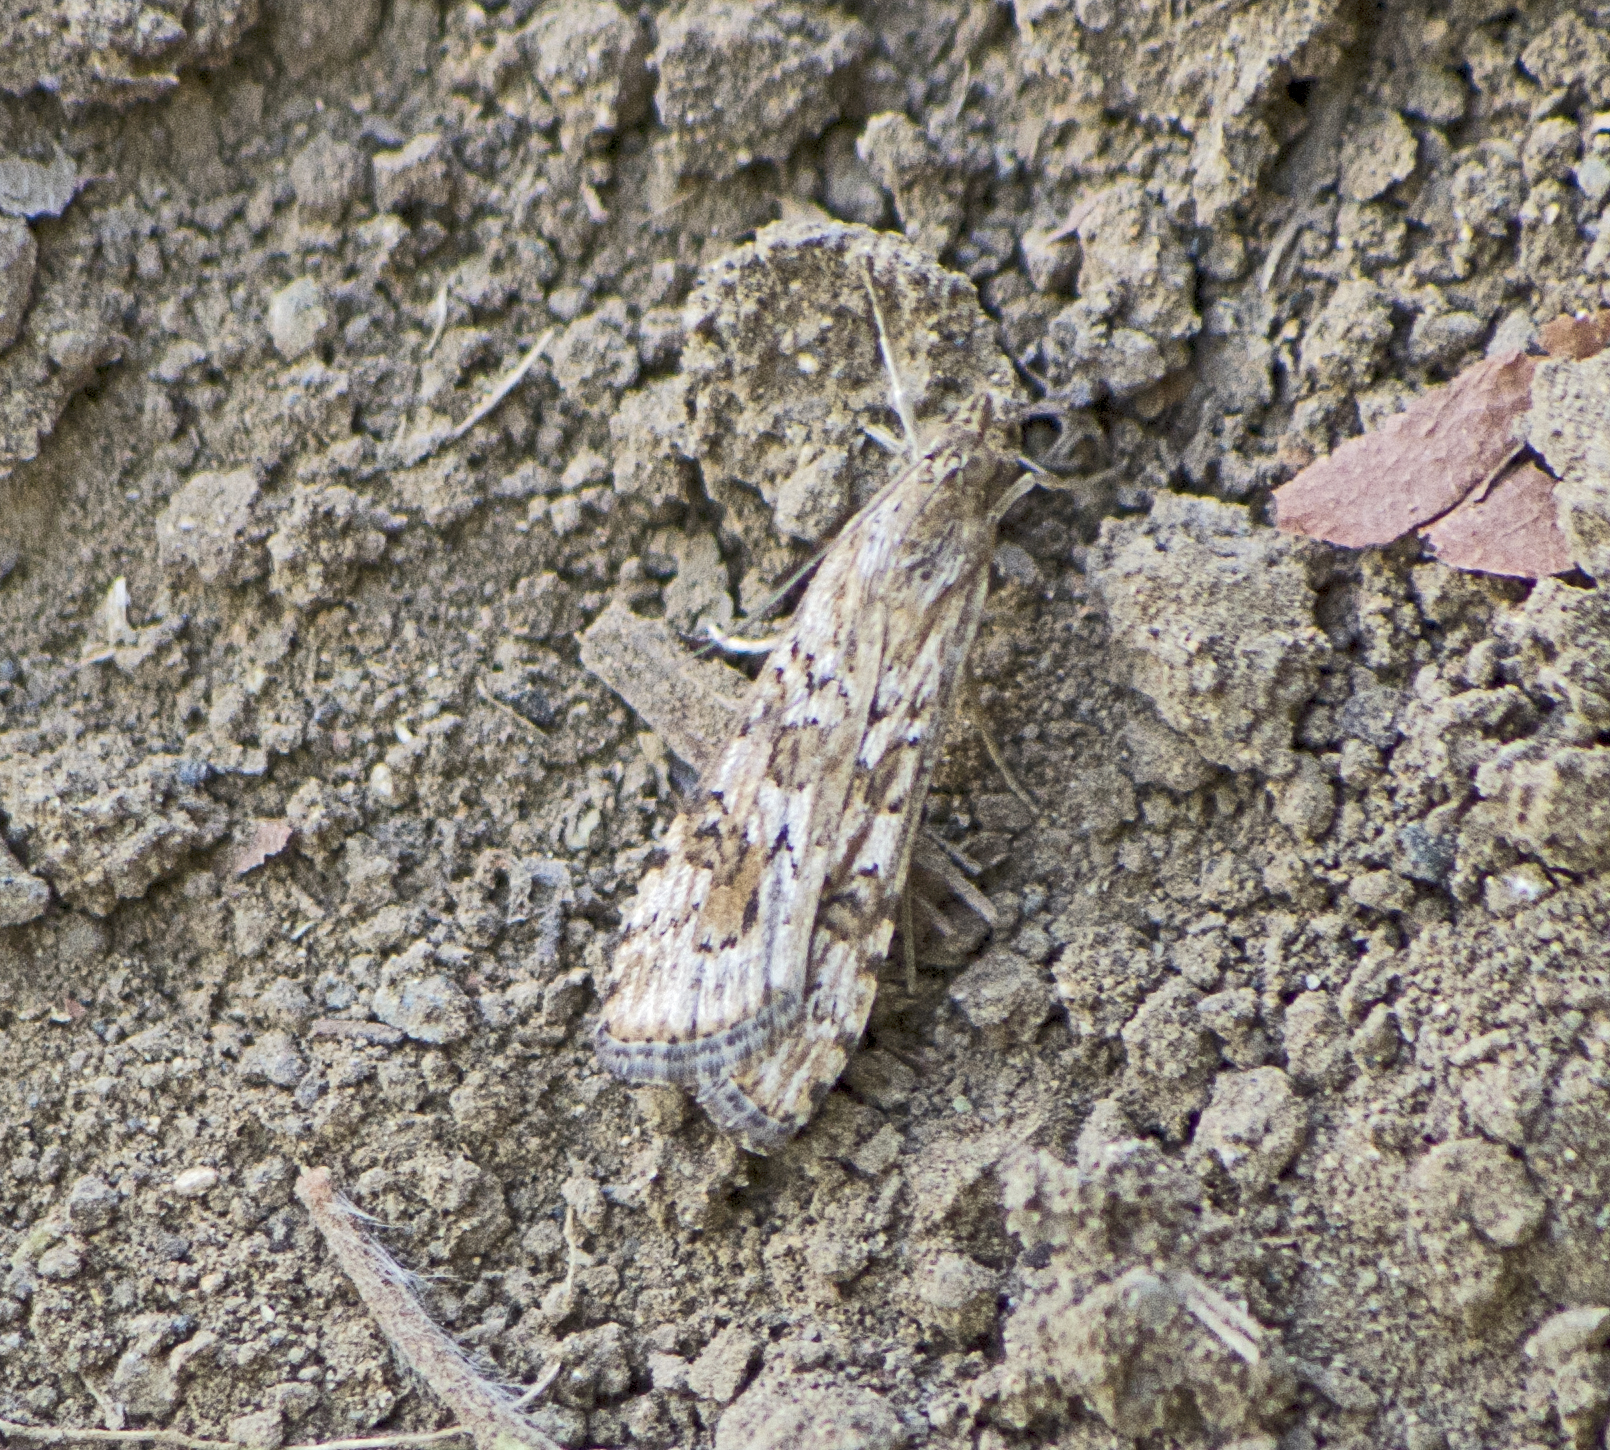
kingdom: Animalia
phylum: Arthropoda
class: Insecta
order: Lepidoptera
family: Crambidae
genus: Nomophila
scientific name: Nomophila noctuella
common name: Rush veneer
